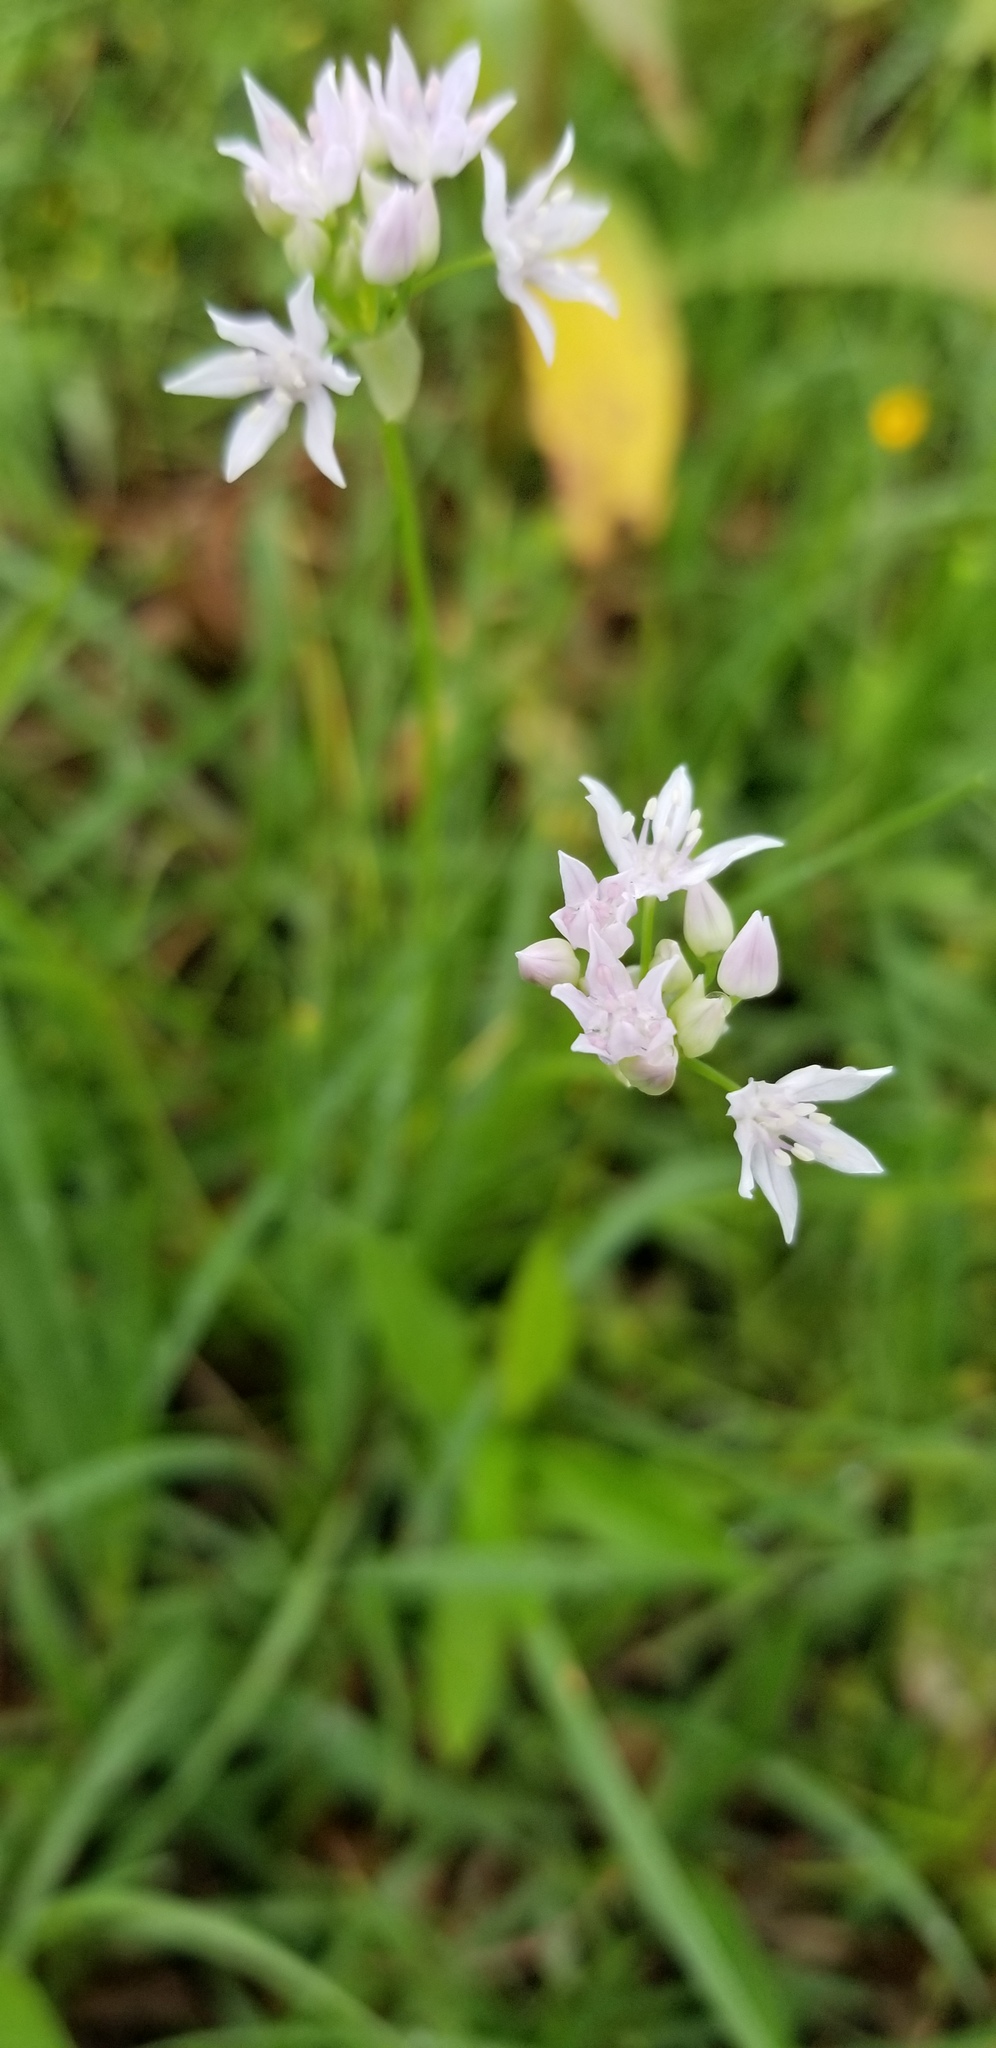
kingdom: Plantae
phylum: Tracheophyta
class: Liliopsida
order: Asparagales
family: Amaryllidaceae
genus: Allium
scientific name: Allium canadense
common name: Meadow garlic
